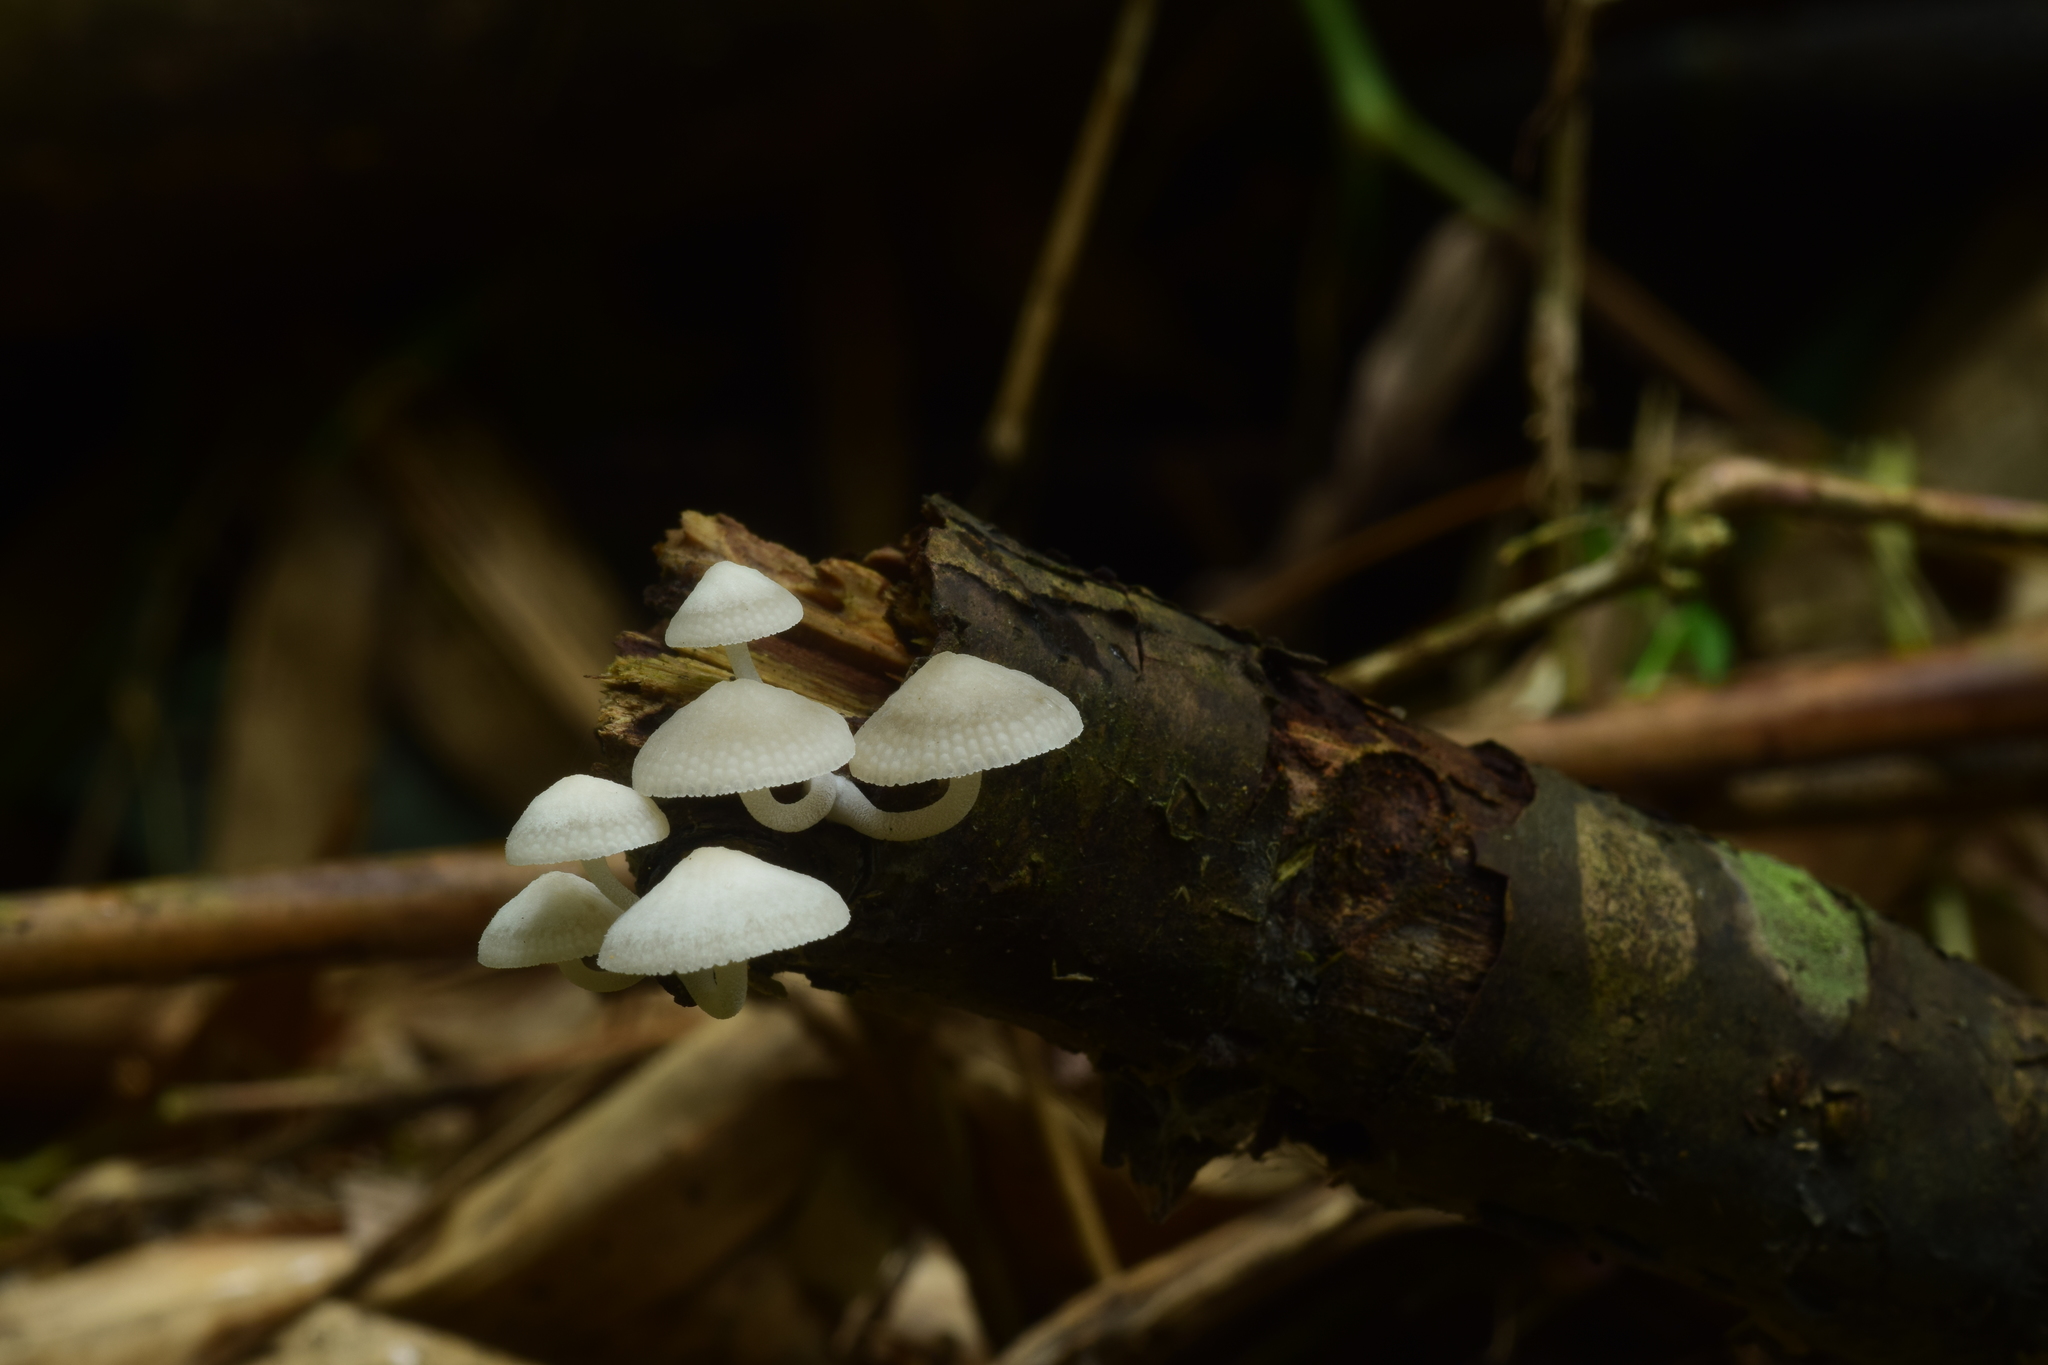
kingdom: Fungi
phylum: Basidiomycota
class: Agaricomycetes
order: Agaricales
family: Mycenaceae
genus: Filoboletus
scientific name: Filoboletus manipularis
